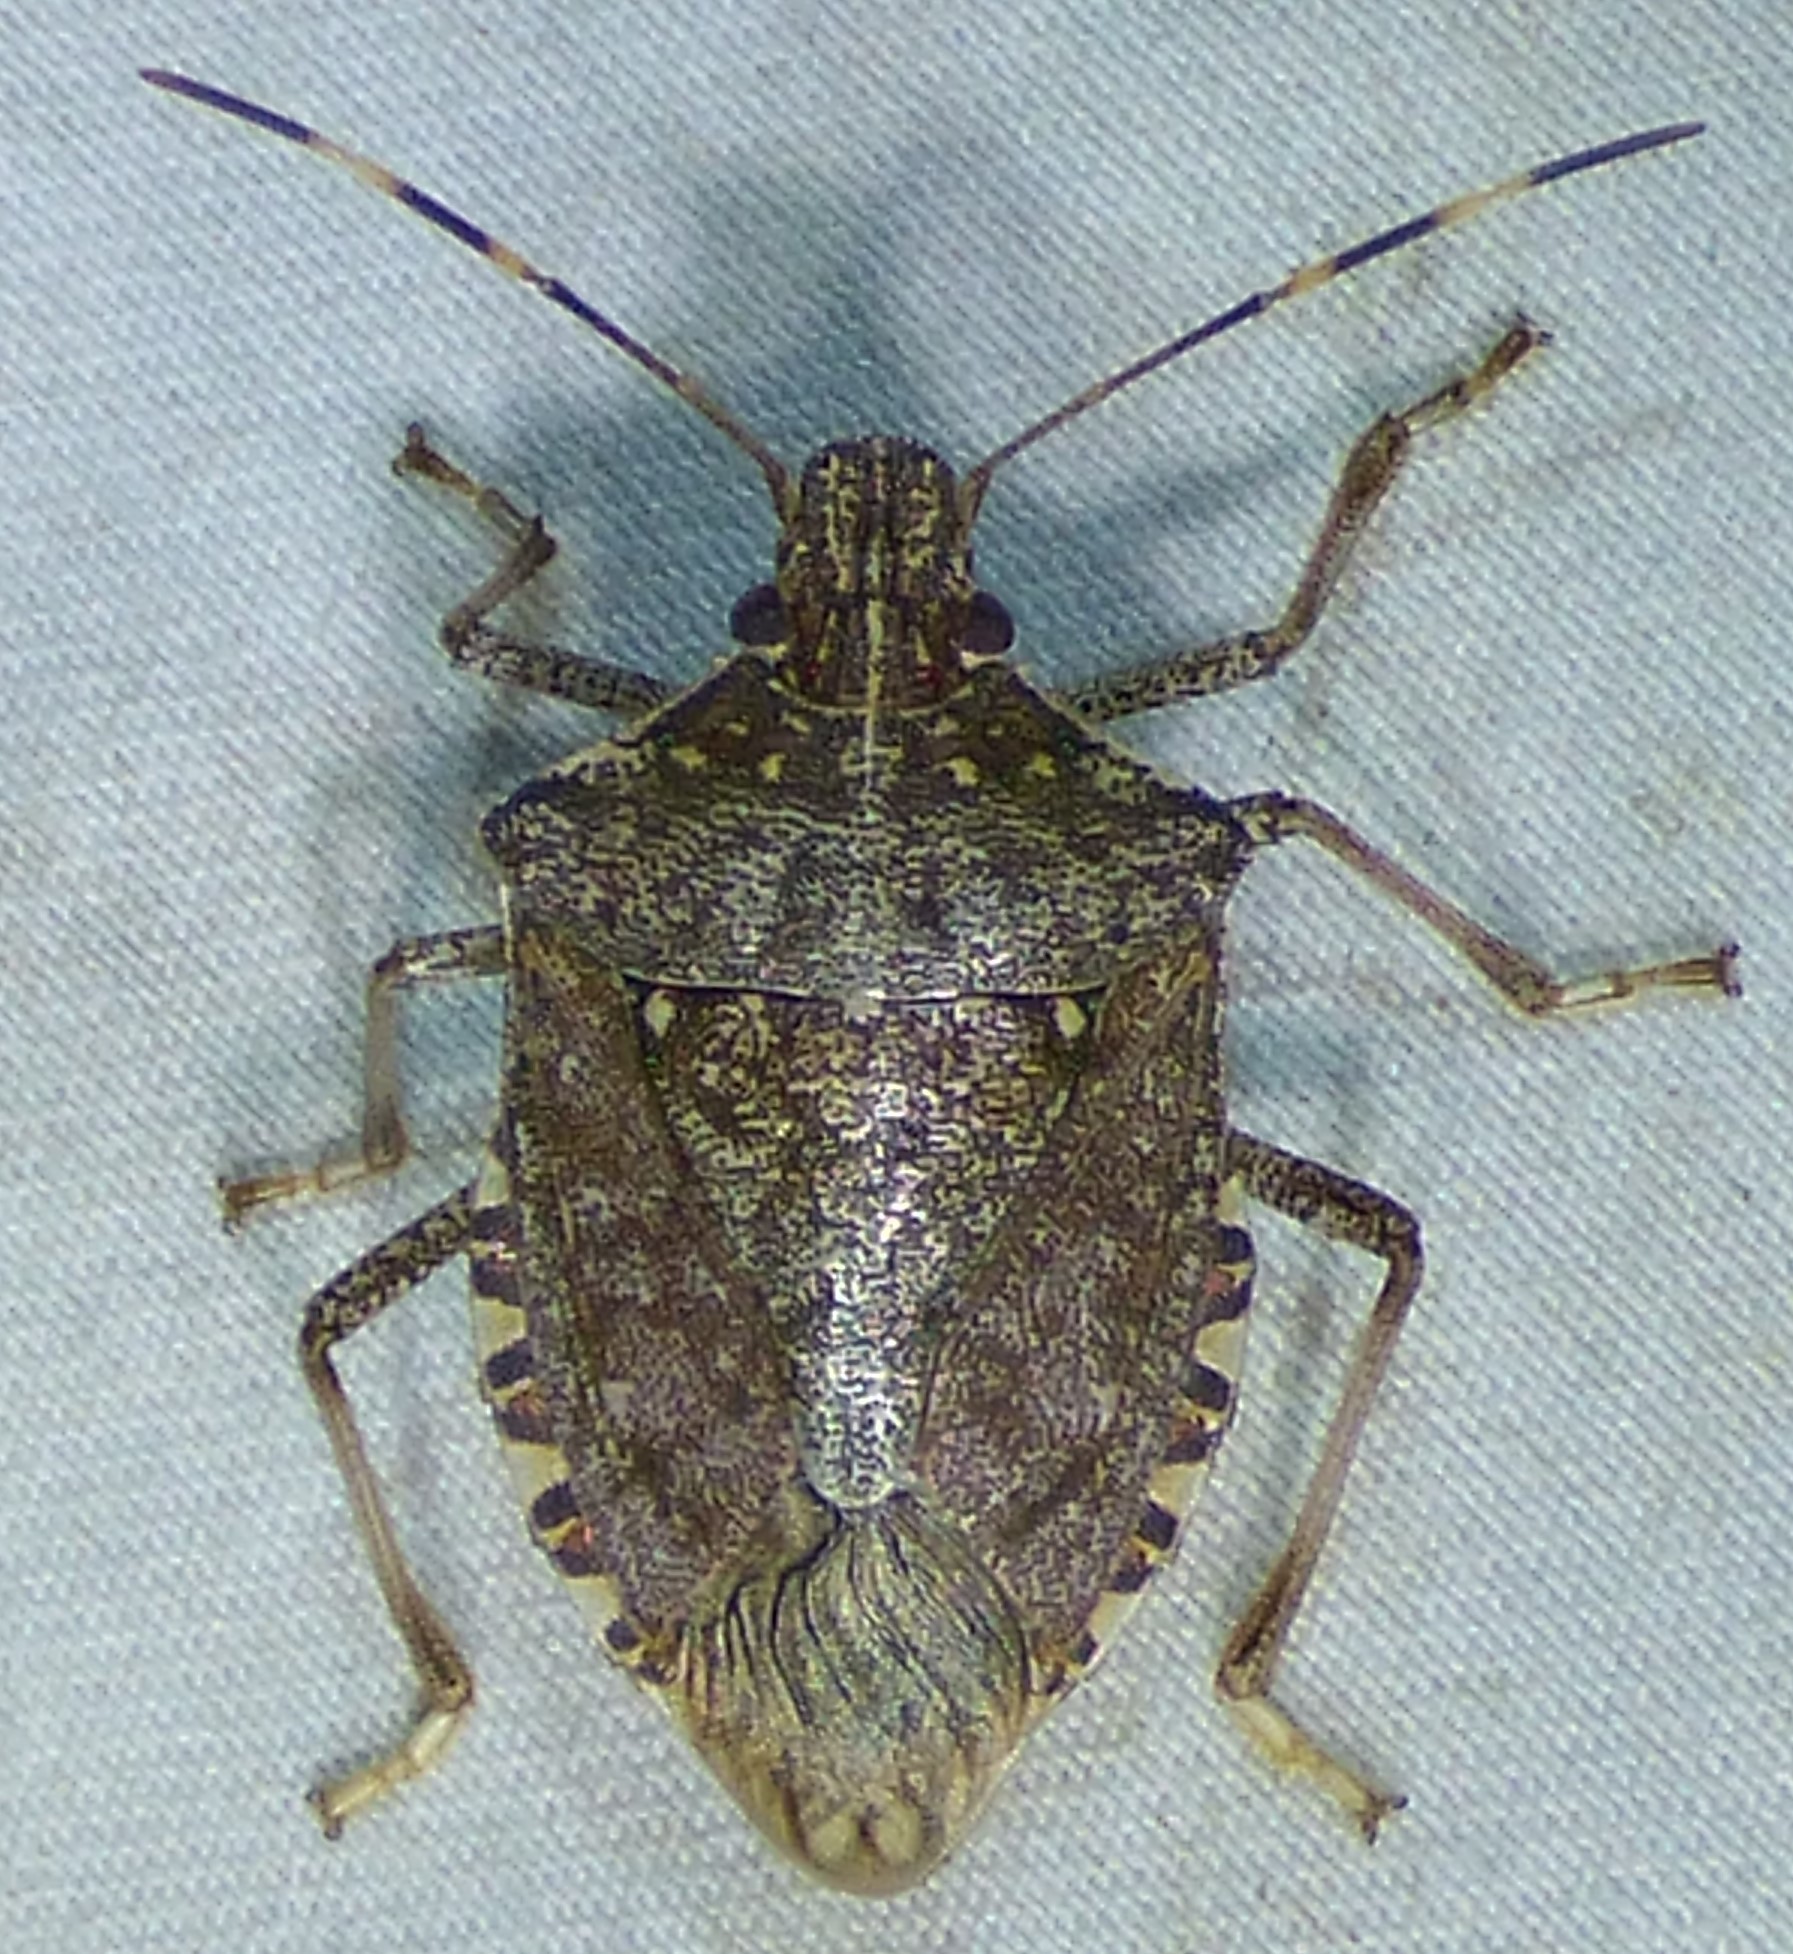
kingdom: Animalia
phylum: Arthropoda
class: Insecta
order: Hemiptera
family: Pentatomidae
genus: Halyomorpha
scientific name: Halyomorpha halys
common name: Brown marmorated stink bug
